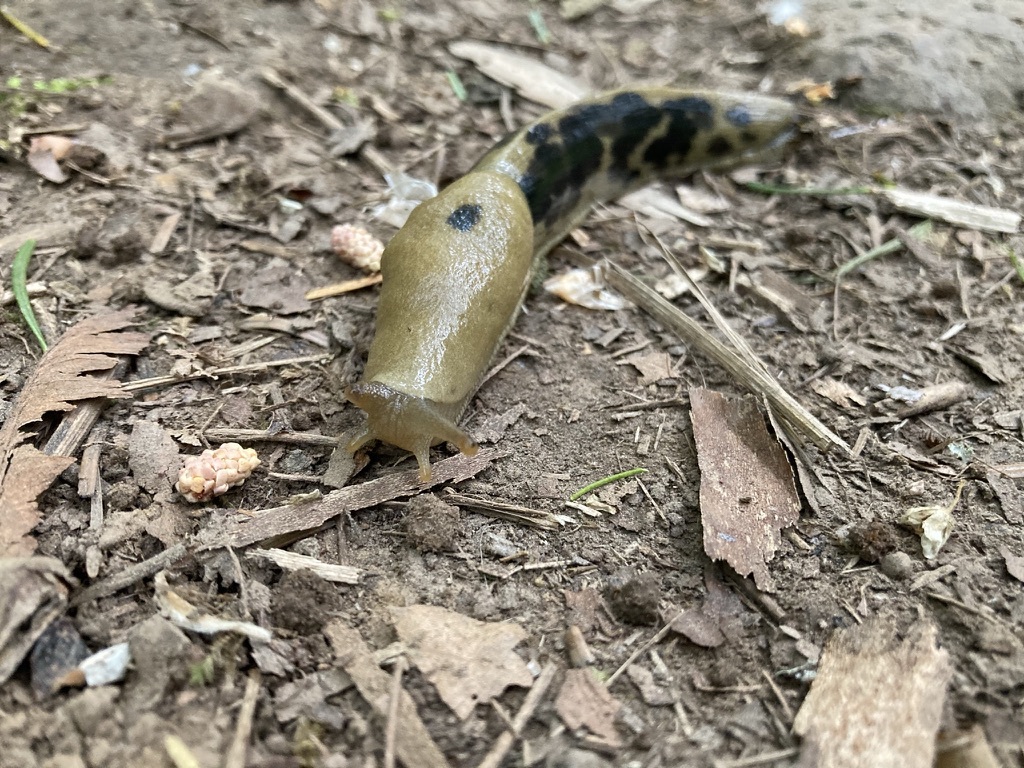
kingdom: Animalia
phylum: Mollusca
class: Gastropoda
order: Stylommatophora
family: Ariolimacidae
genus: Ariolimax
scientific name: Ariolimax columbianus
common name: Pacific banana slug
